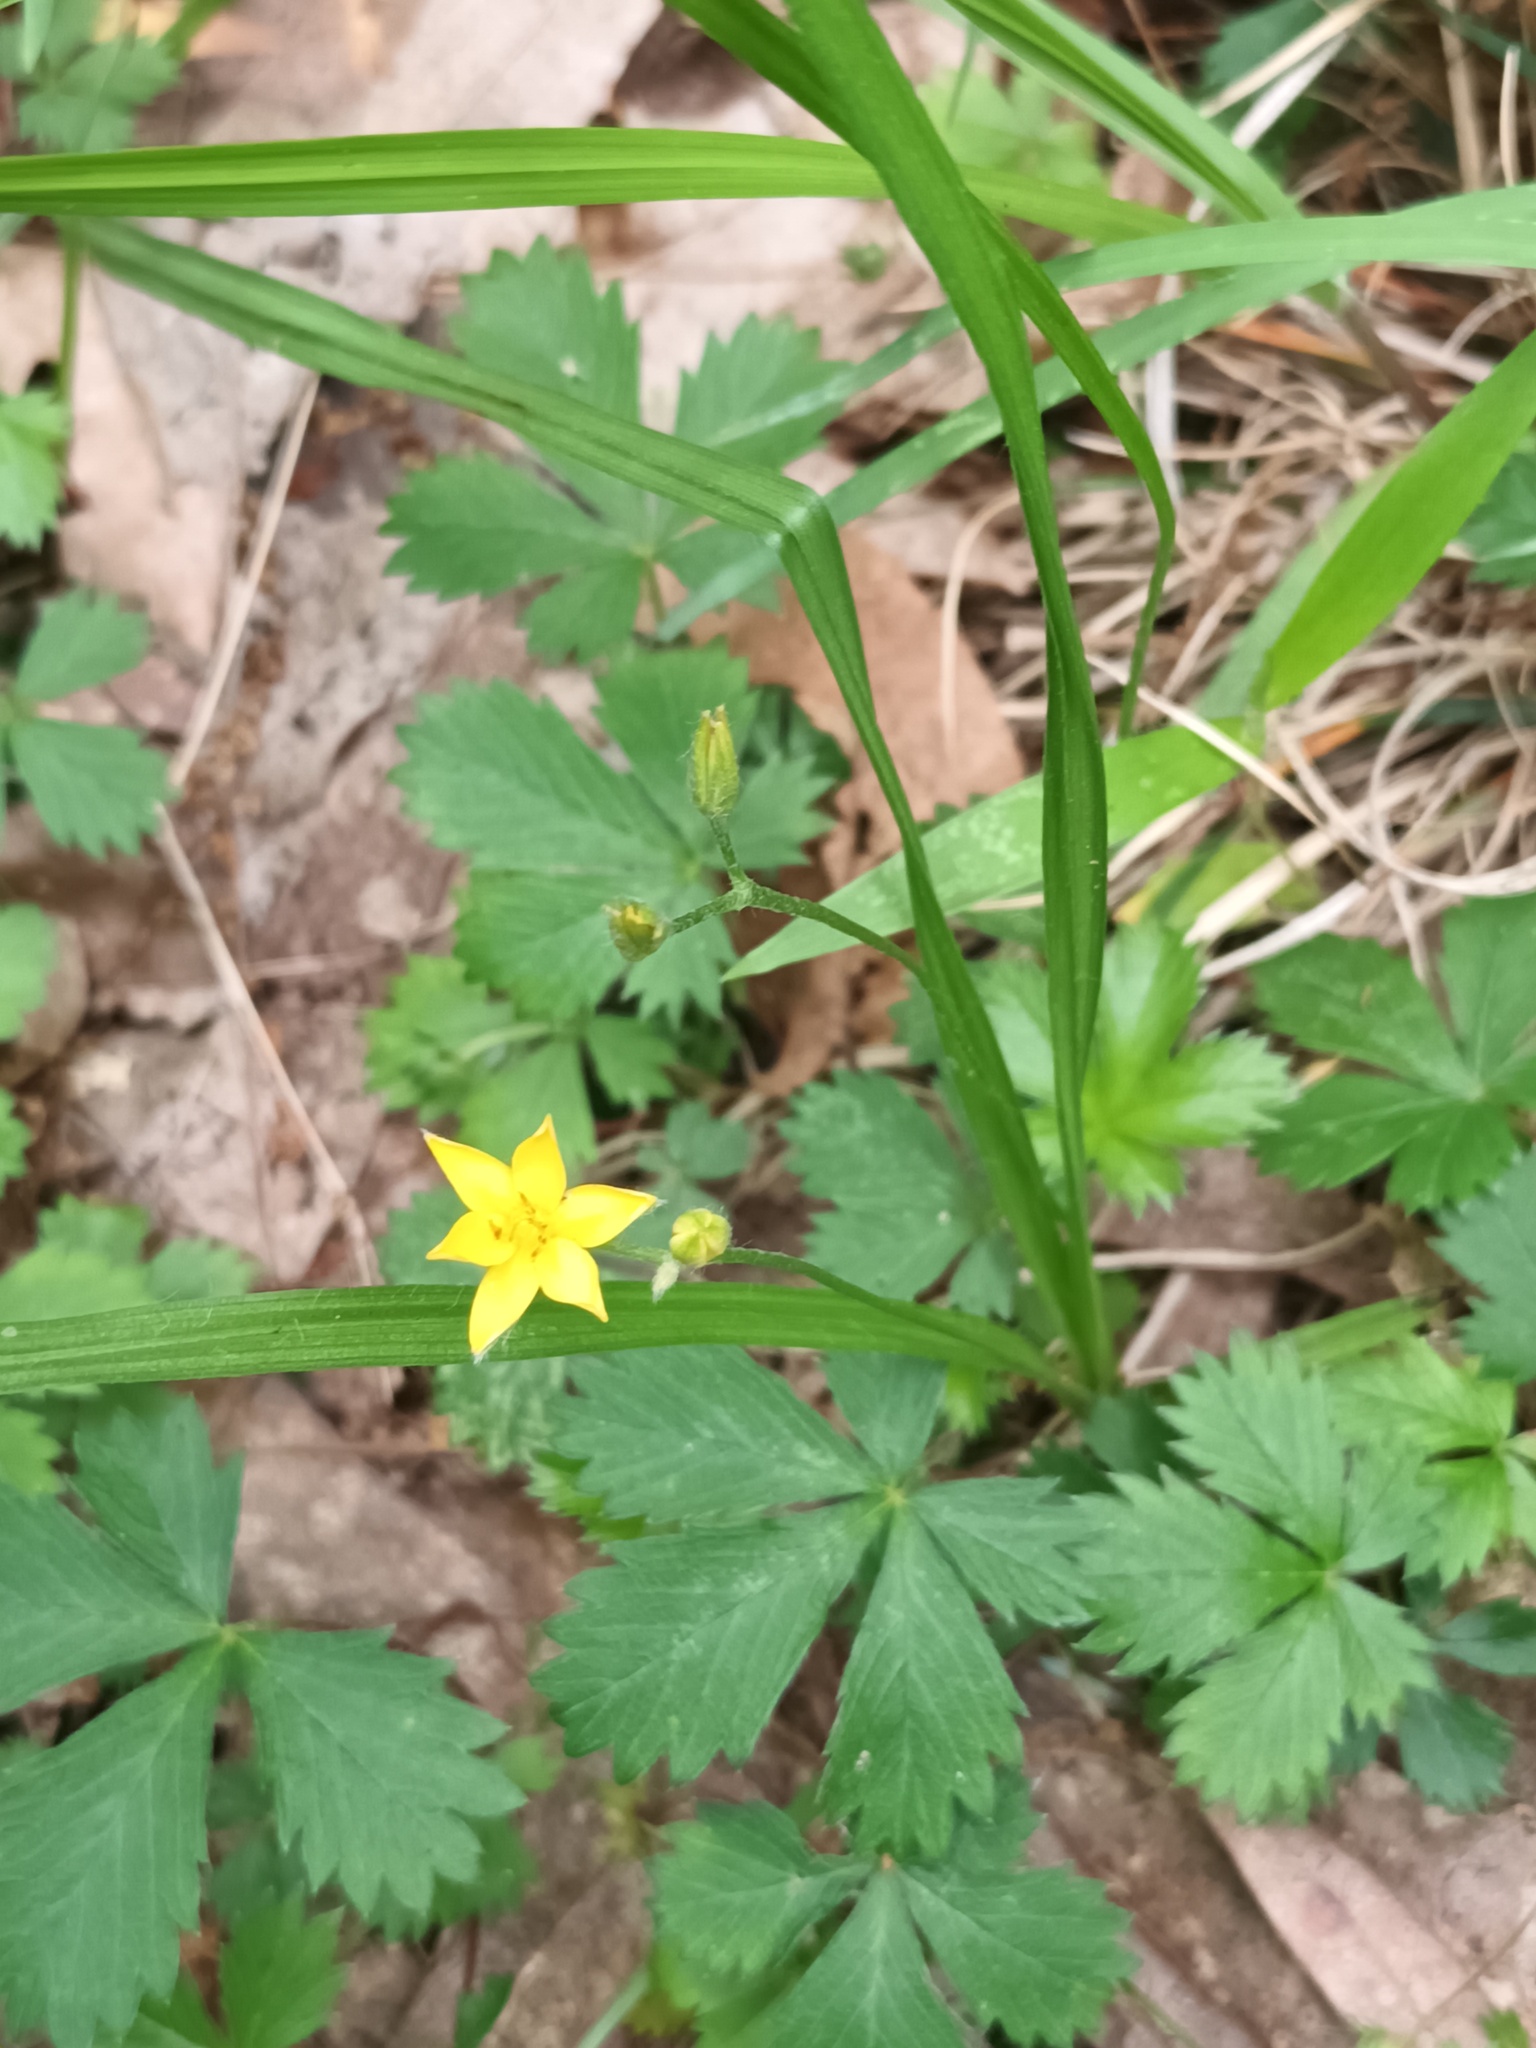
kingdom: Plantae
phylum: Tracheophyta
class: Liliopsida
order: Asparagales
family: Hypoxidaceae
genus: Hypoxis
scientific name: Hypoxis hirsuta
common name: Common goldstar
